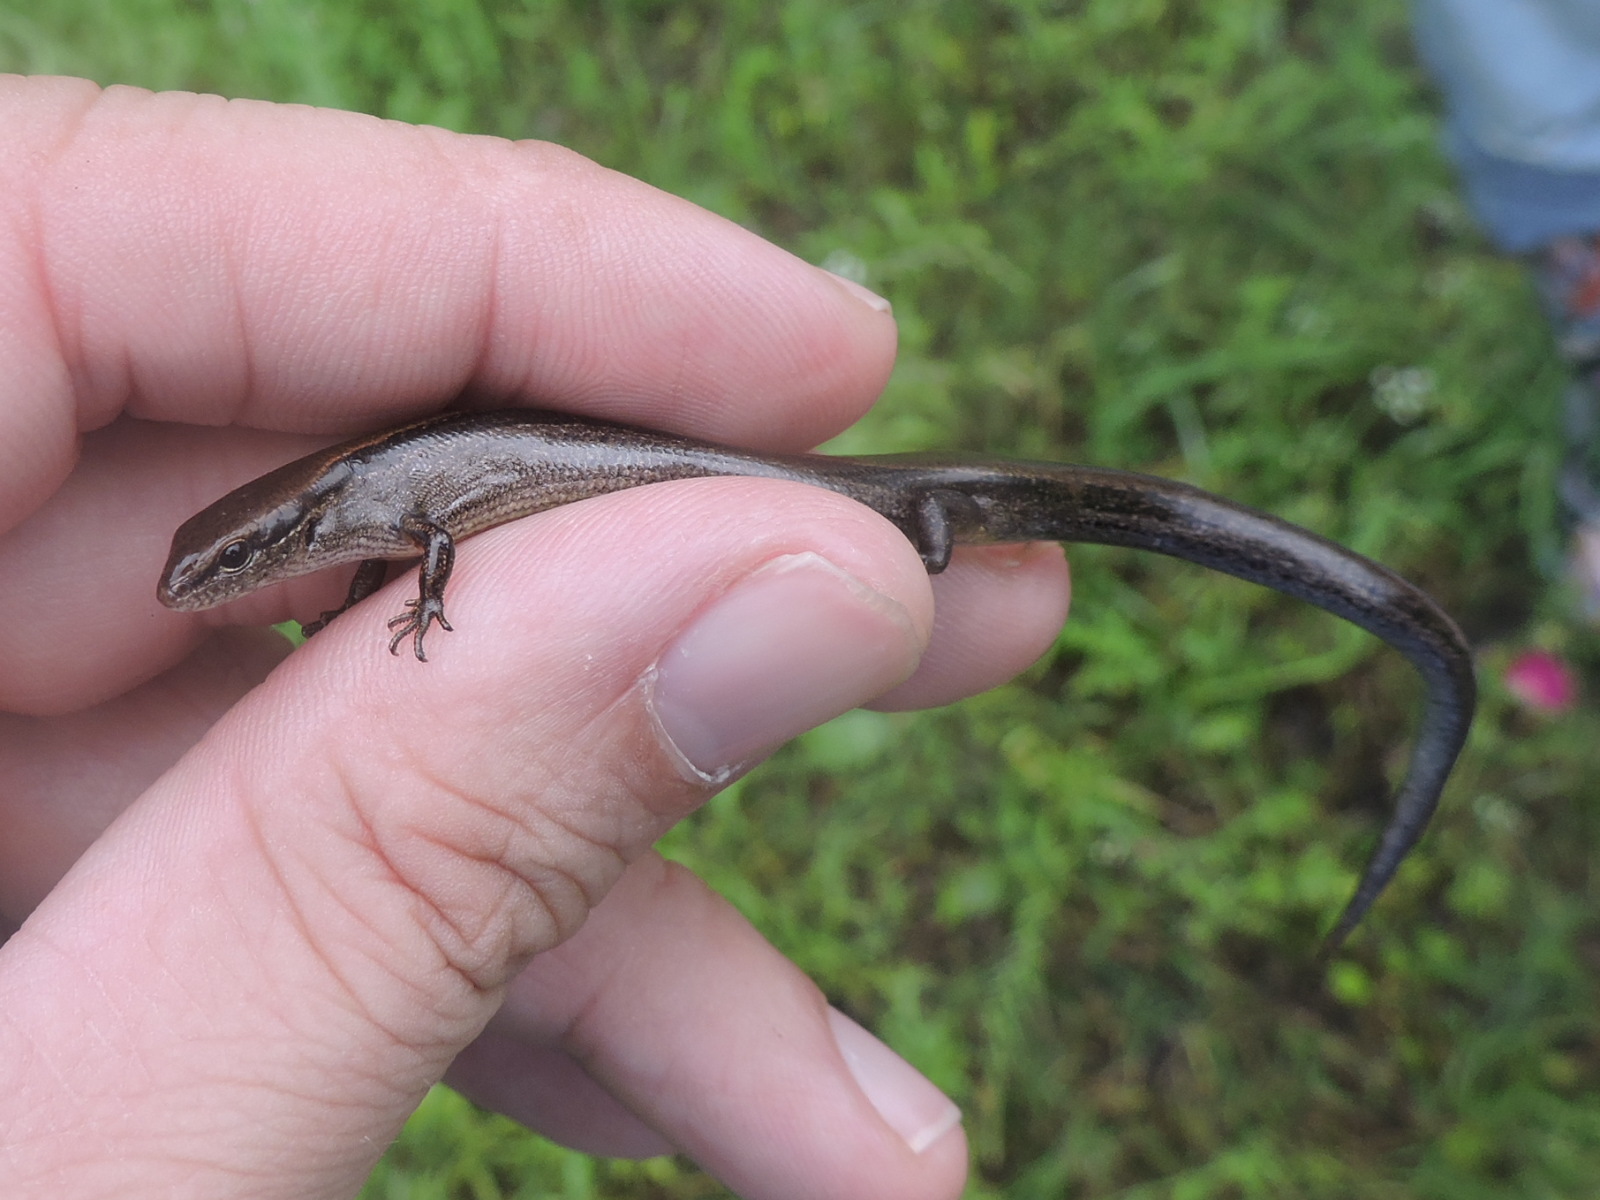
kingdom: Animalia
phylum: Chordata
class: Squamata
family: Scincidae
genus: Scincella
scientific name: Scincella lateralis
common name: Ground skink
